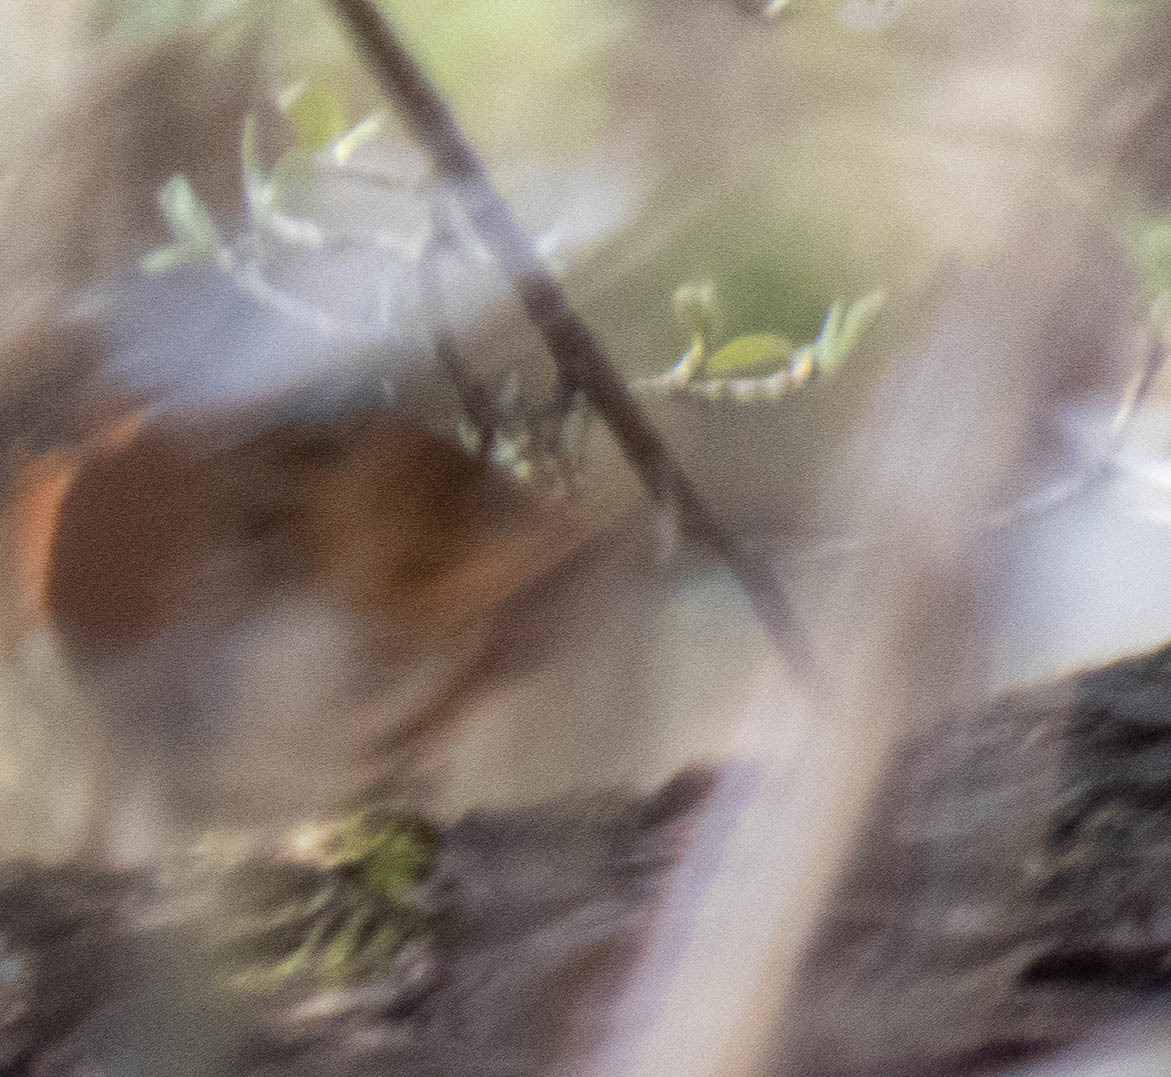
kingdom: Animalia
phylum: Chordata
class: Aves
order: Passeriformes
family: Passerellidae
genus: Pipilo
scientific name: Pipilo erythrophthalmus
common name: Eastern towhee
